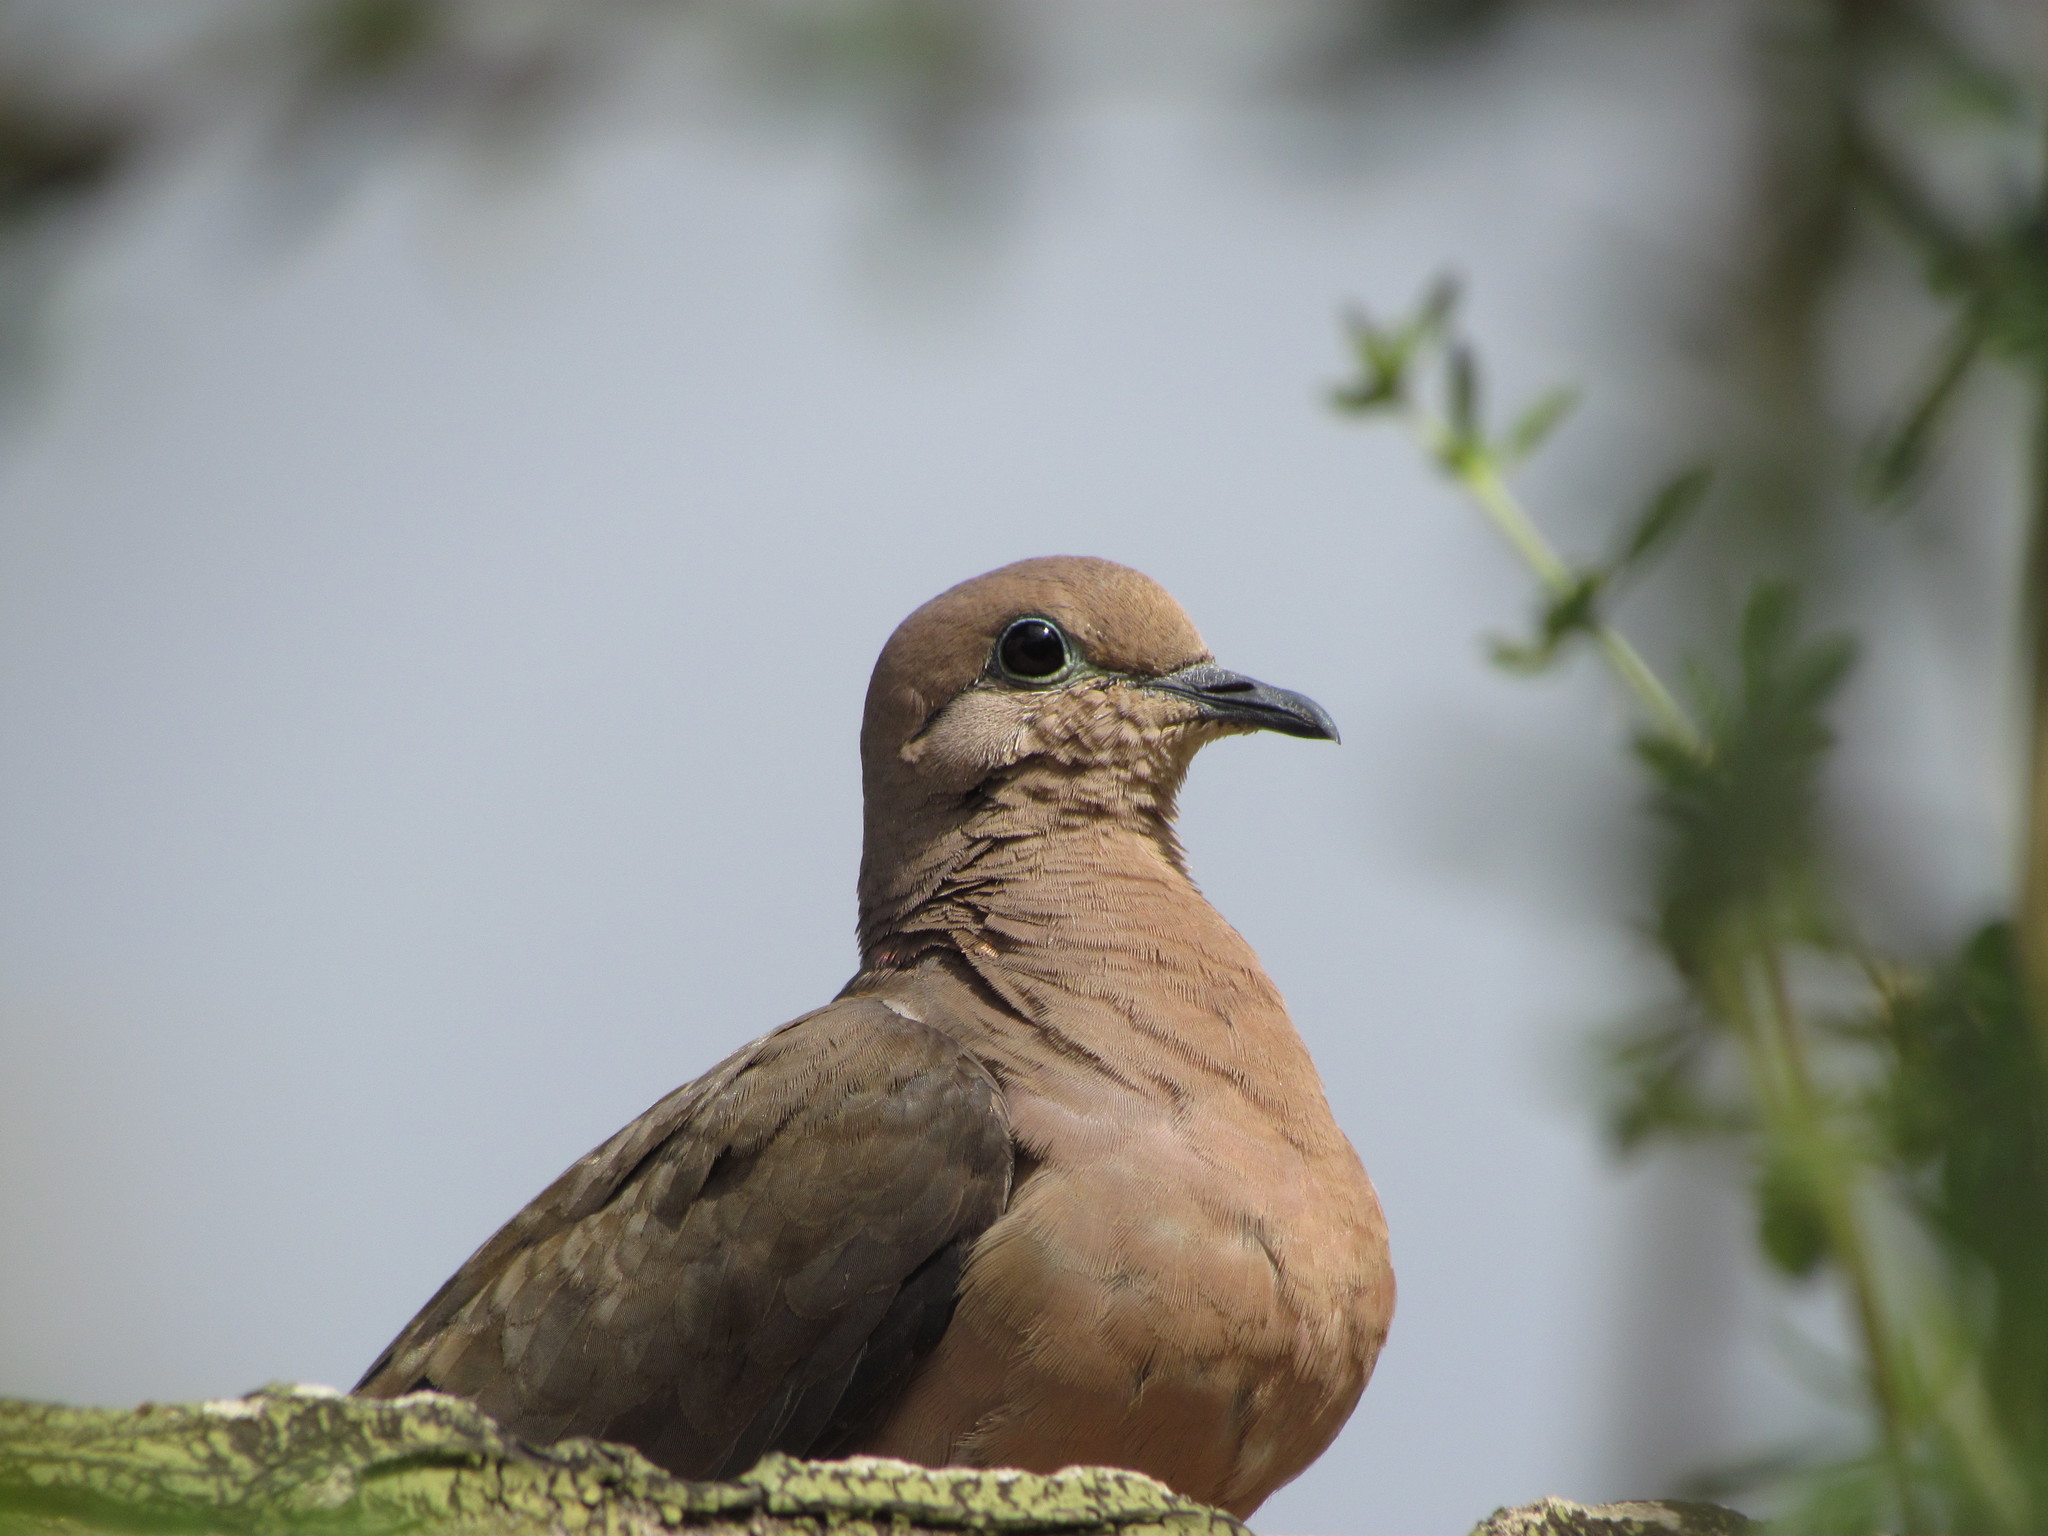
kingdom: Animalia
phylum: Chordata
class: Aves
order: Columbiformes
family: Columbidae
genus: Zenaida
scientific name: Zenaida auriculata
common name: Eared dove
